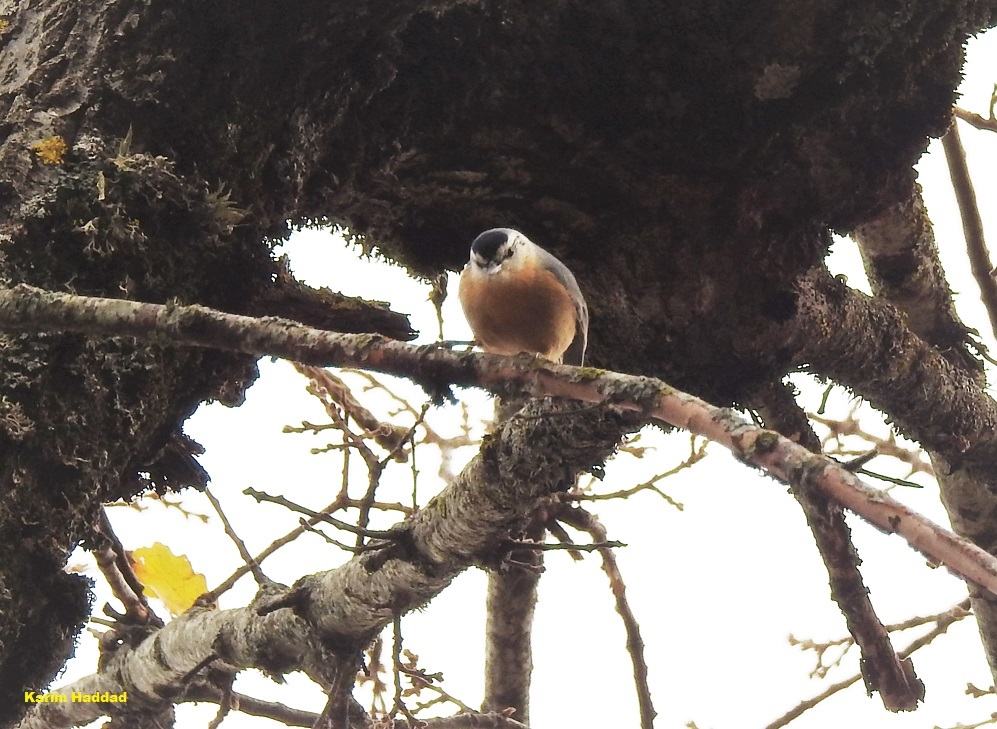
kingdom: Animalia
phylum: Chordata
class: Aves
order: Passeriformes
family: Sittidae
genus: Sitta
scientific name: Sitta ledanti
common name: Algerian nuthatch
